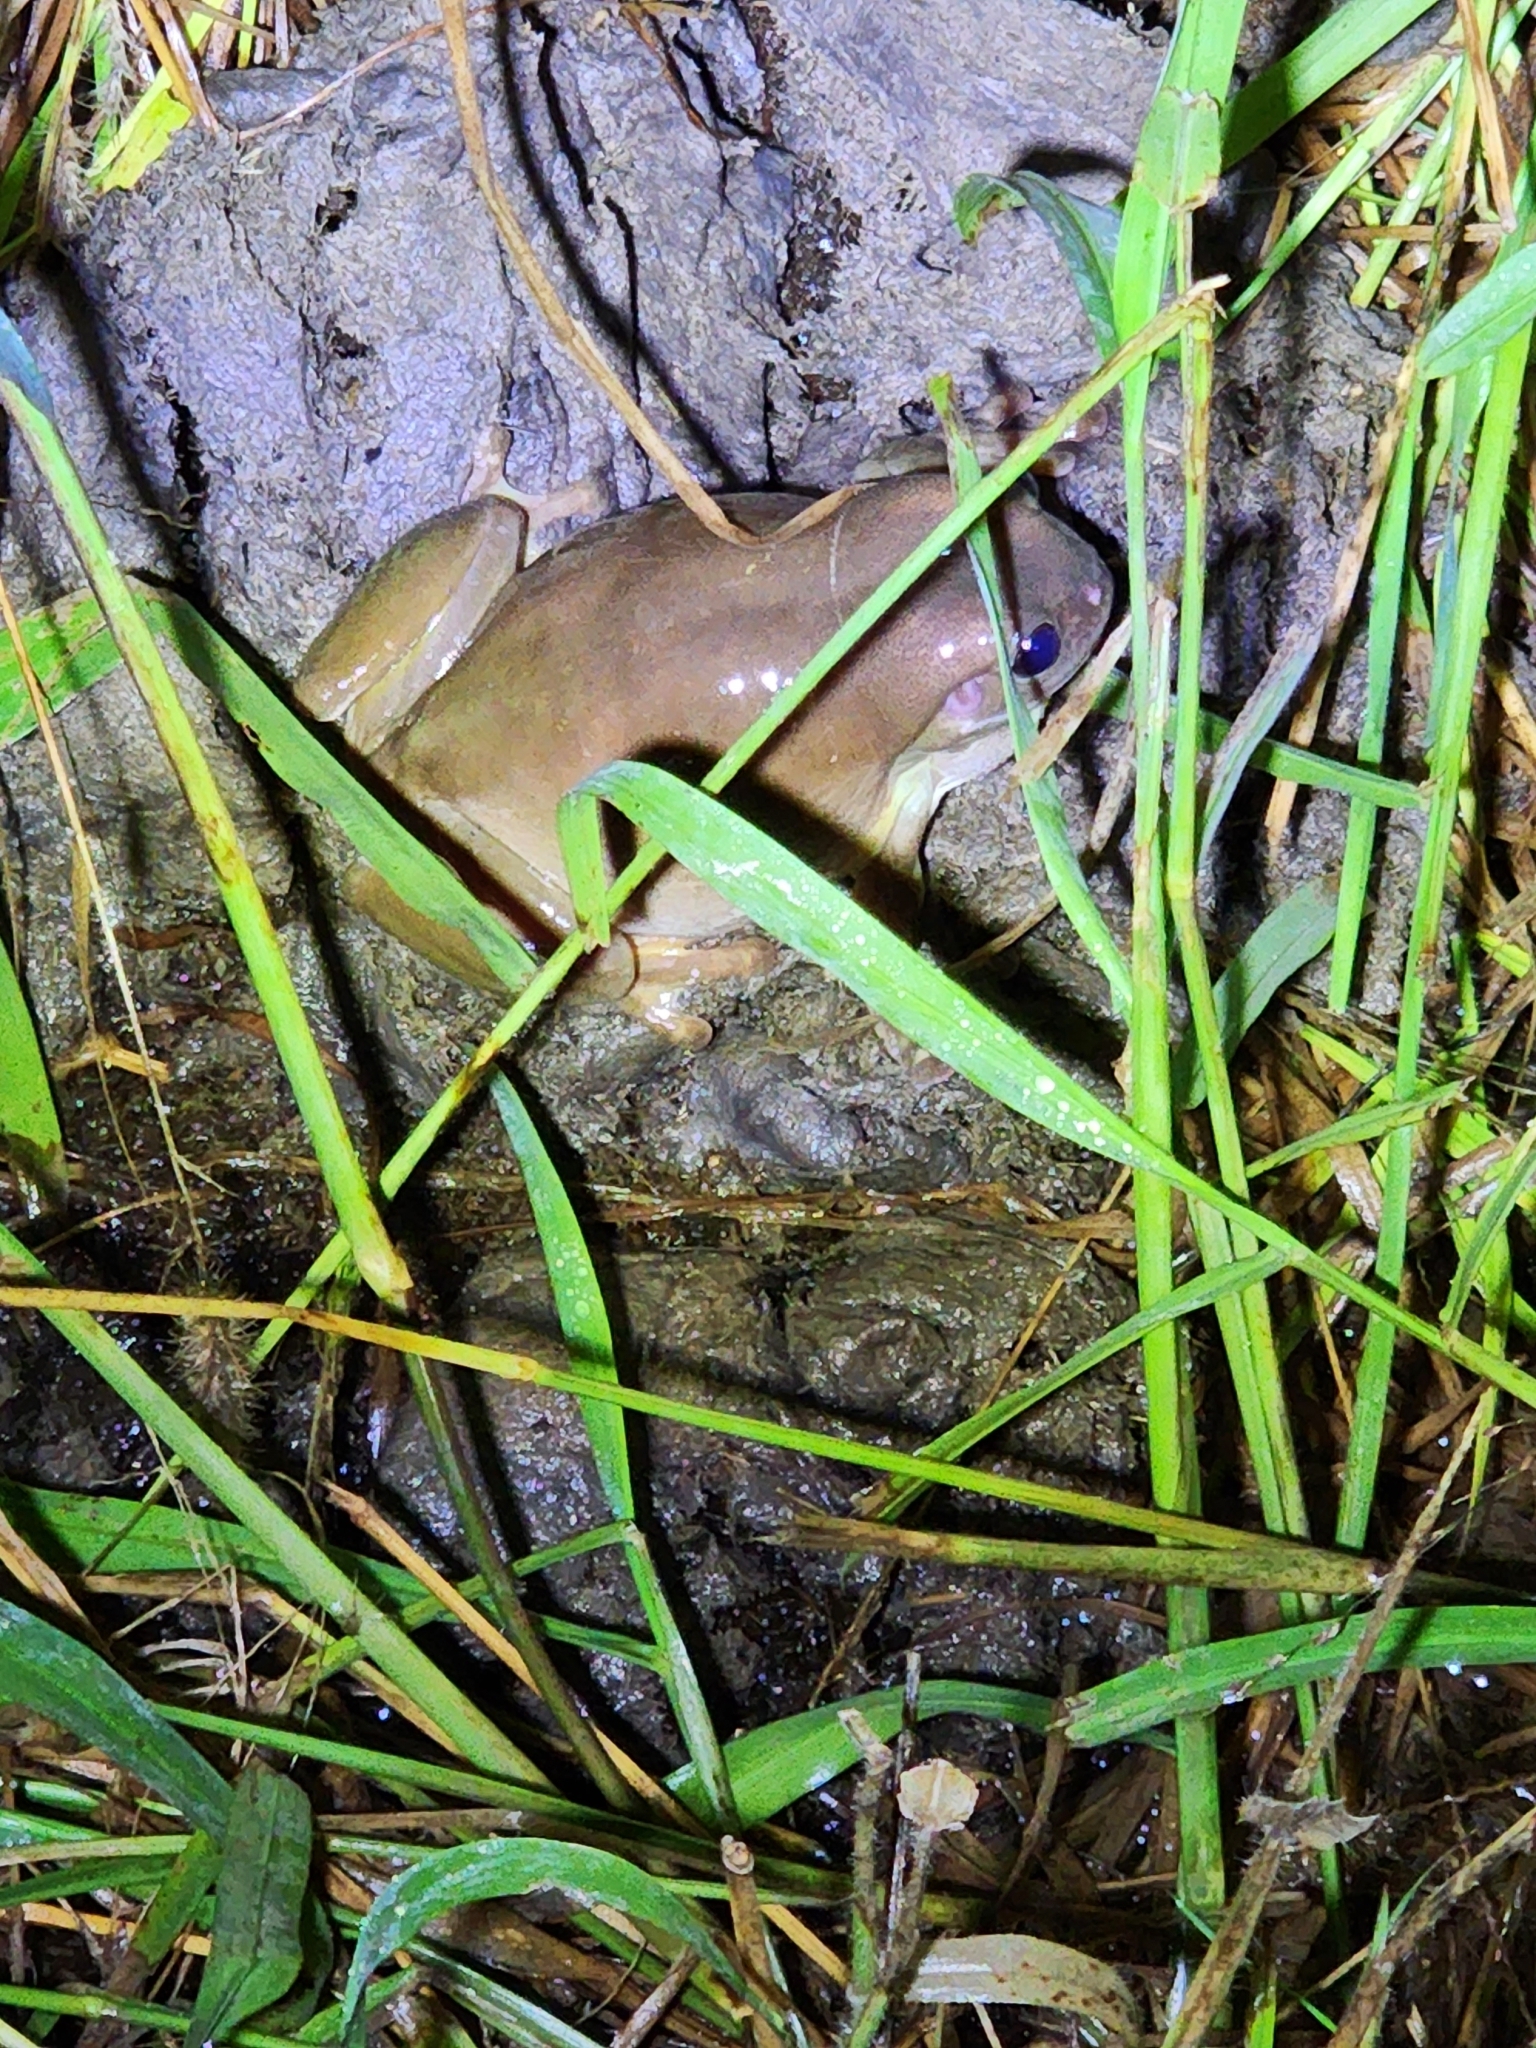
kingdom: Animalia
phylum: Chordata
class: Amphibia
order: Anura
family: Pelodryadidae
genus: Ranoidea
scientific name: Ranoidea caerulea
